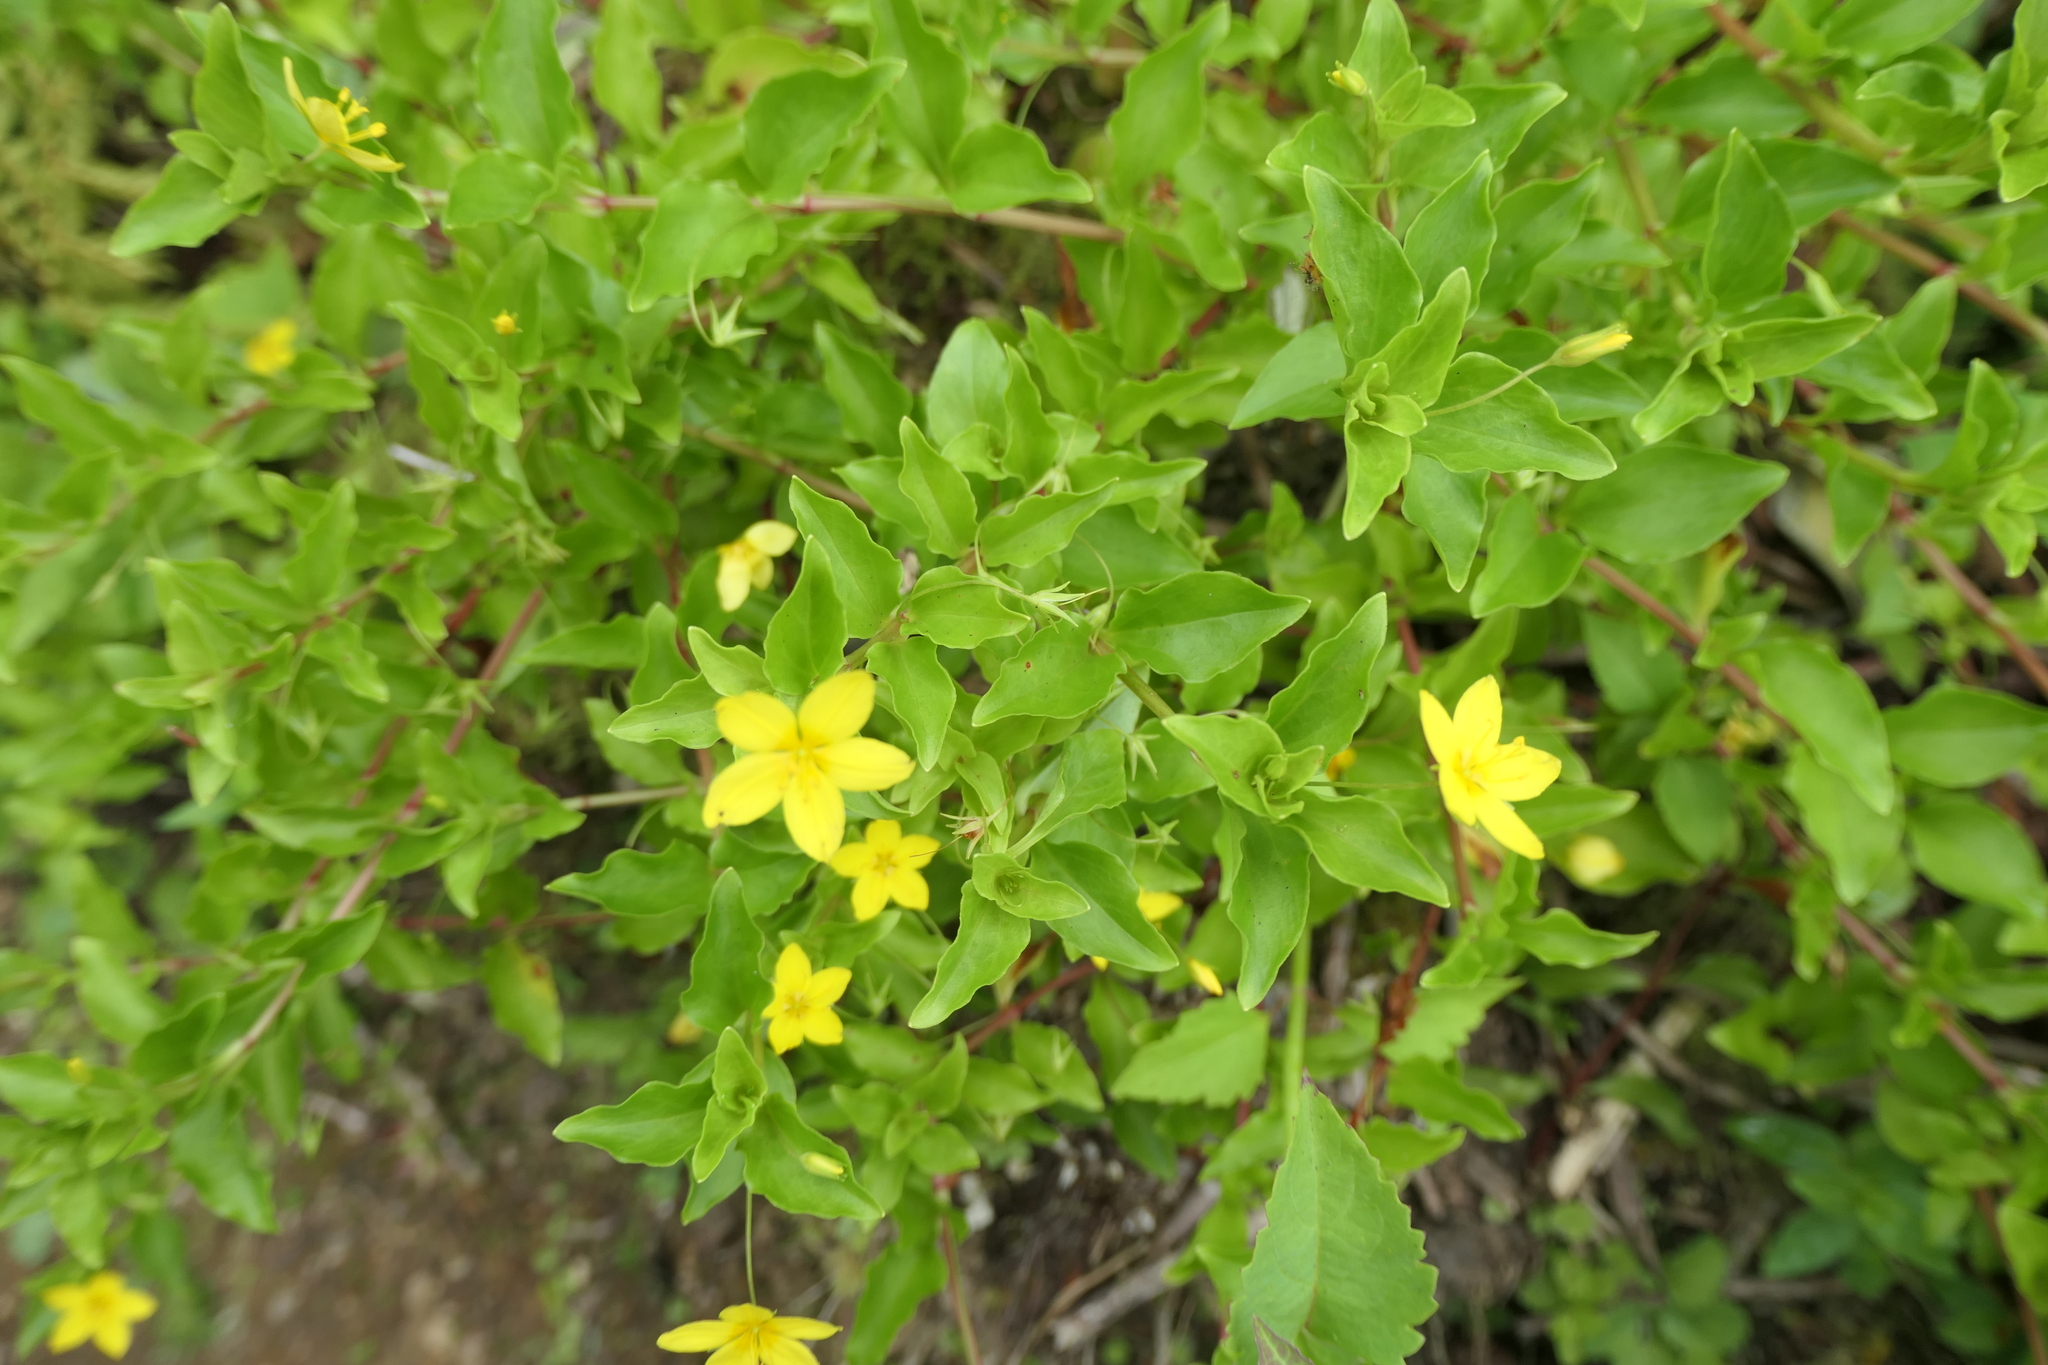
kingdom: Plantae
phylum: Tracheophyta
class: Magnoliopsida
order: Ericales
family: Primulaceae
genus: Lysimachia
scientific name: Lysimachia azorica
